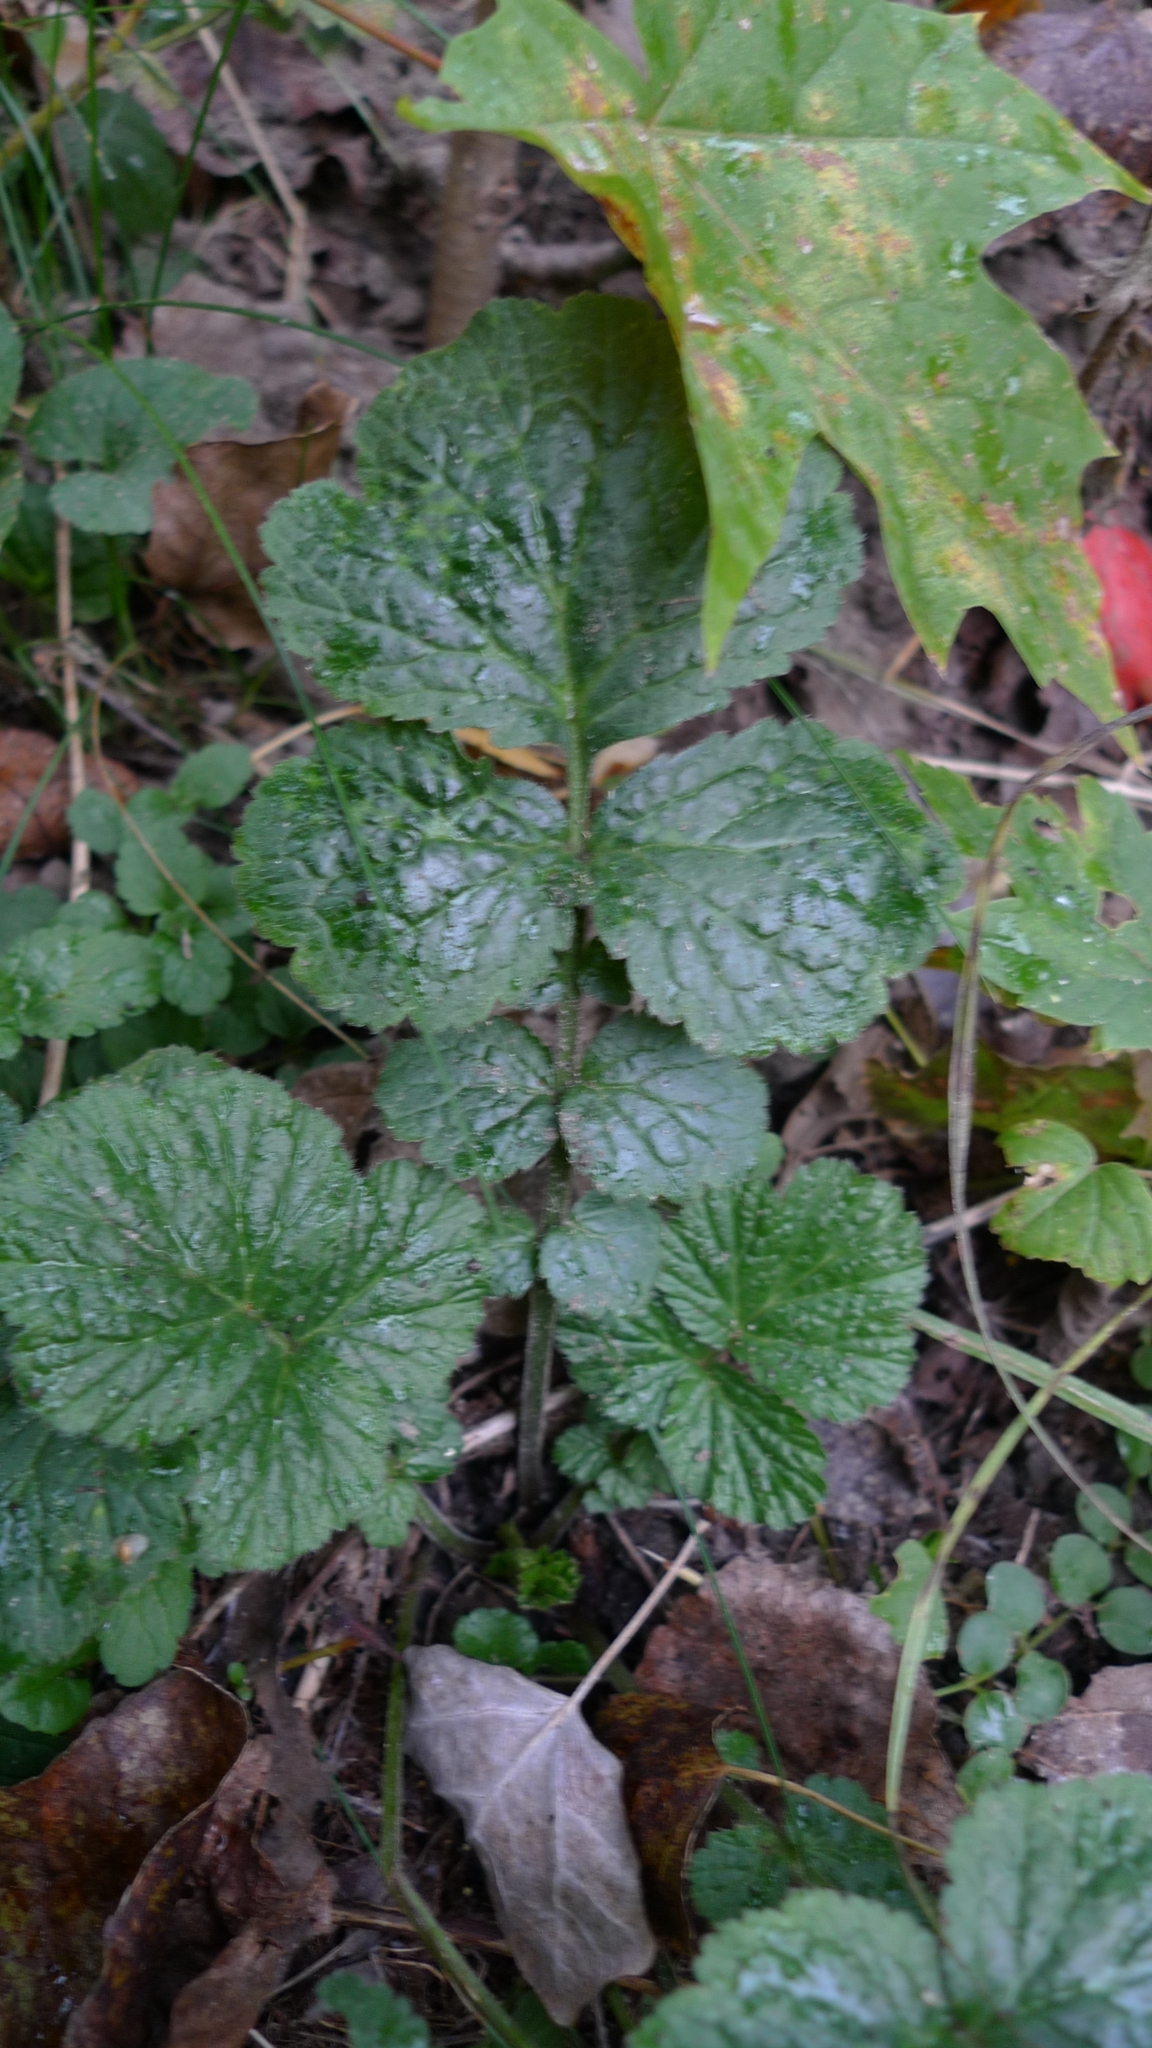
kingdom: Plantae
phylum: Tracheophyta
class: Magnoliopsida
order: Rosales
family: Rosaceae
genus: Geum
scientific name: Geum urbanum
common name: Wood avens
